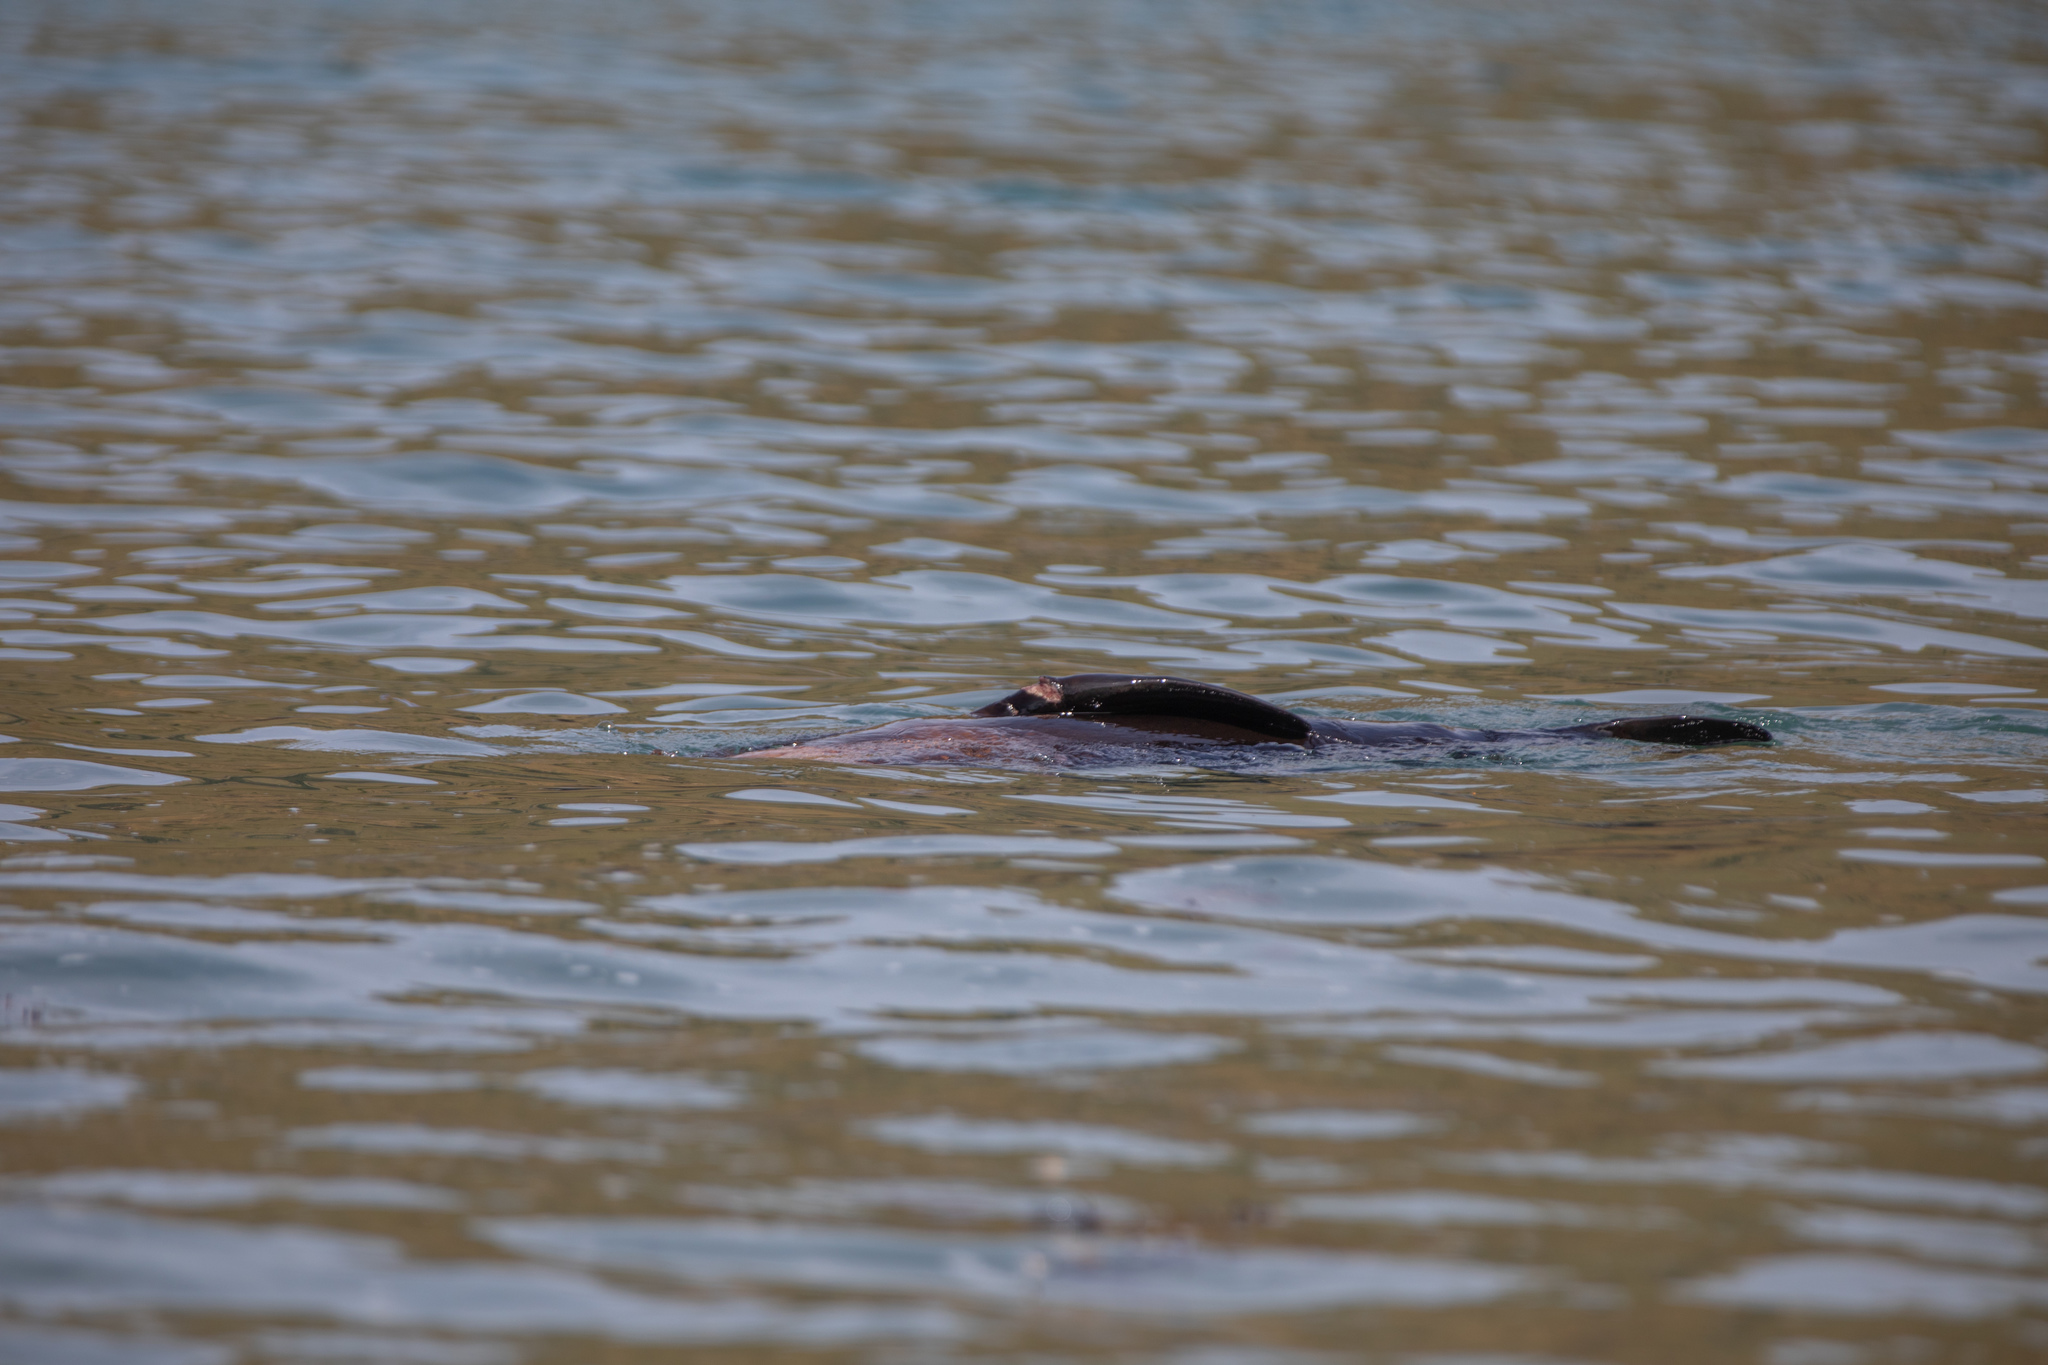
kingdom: Animalia
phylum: Chordata
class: Mammalia
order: Carnivora
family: Otariidae
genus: Arctocephalus
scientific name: Arctocephalus forsteri
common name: New zealand fur seal
